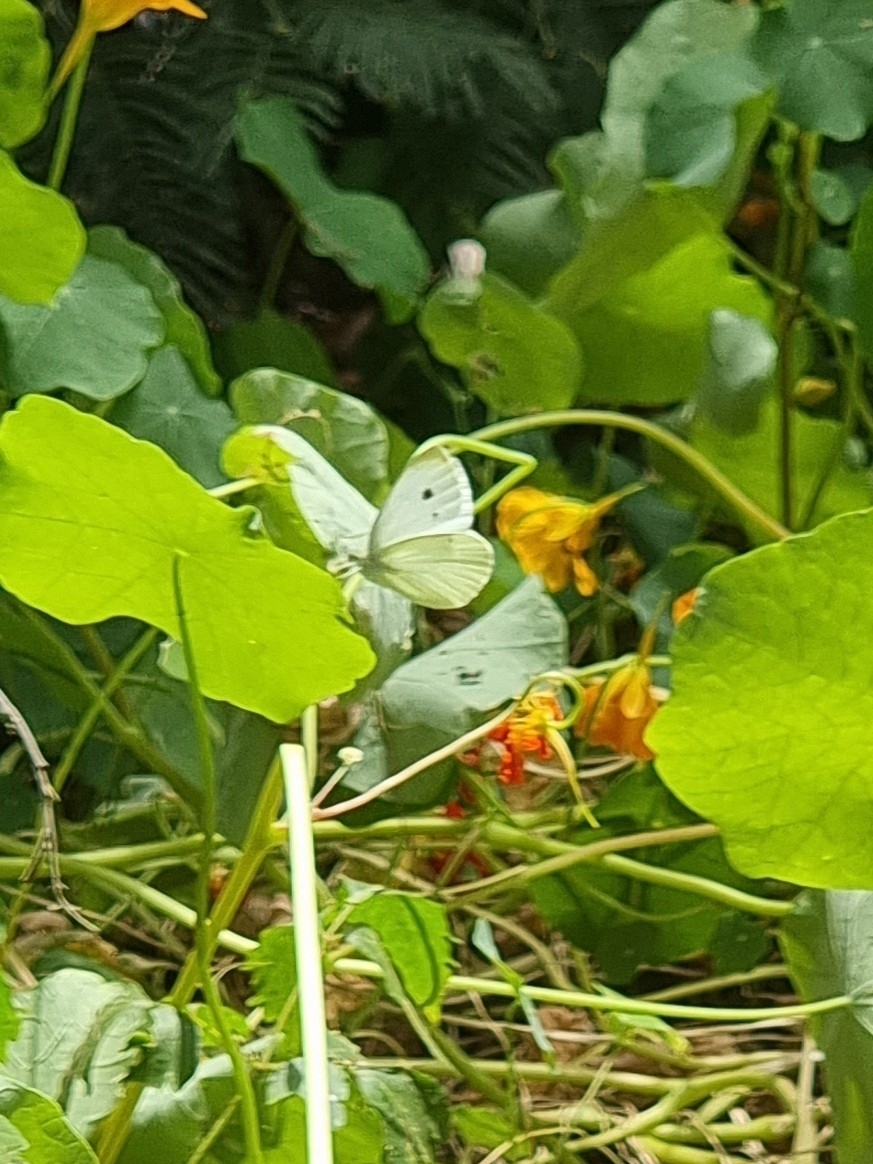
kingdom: Animalia
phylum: Arthropoda
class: Insecta
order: Lepidoptera
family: Pieridae
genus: Pieris
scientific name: Pieris rapae
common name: Small white
